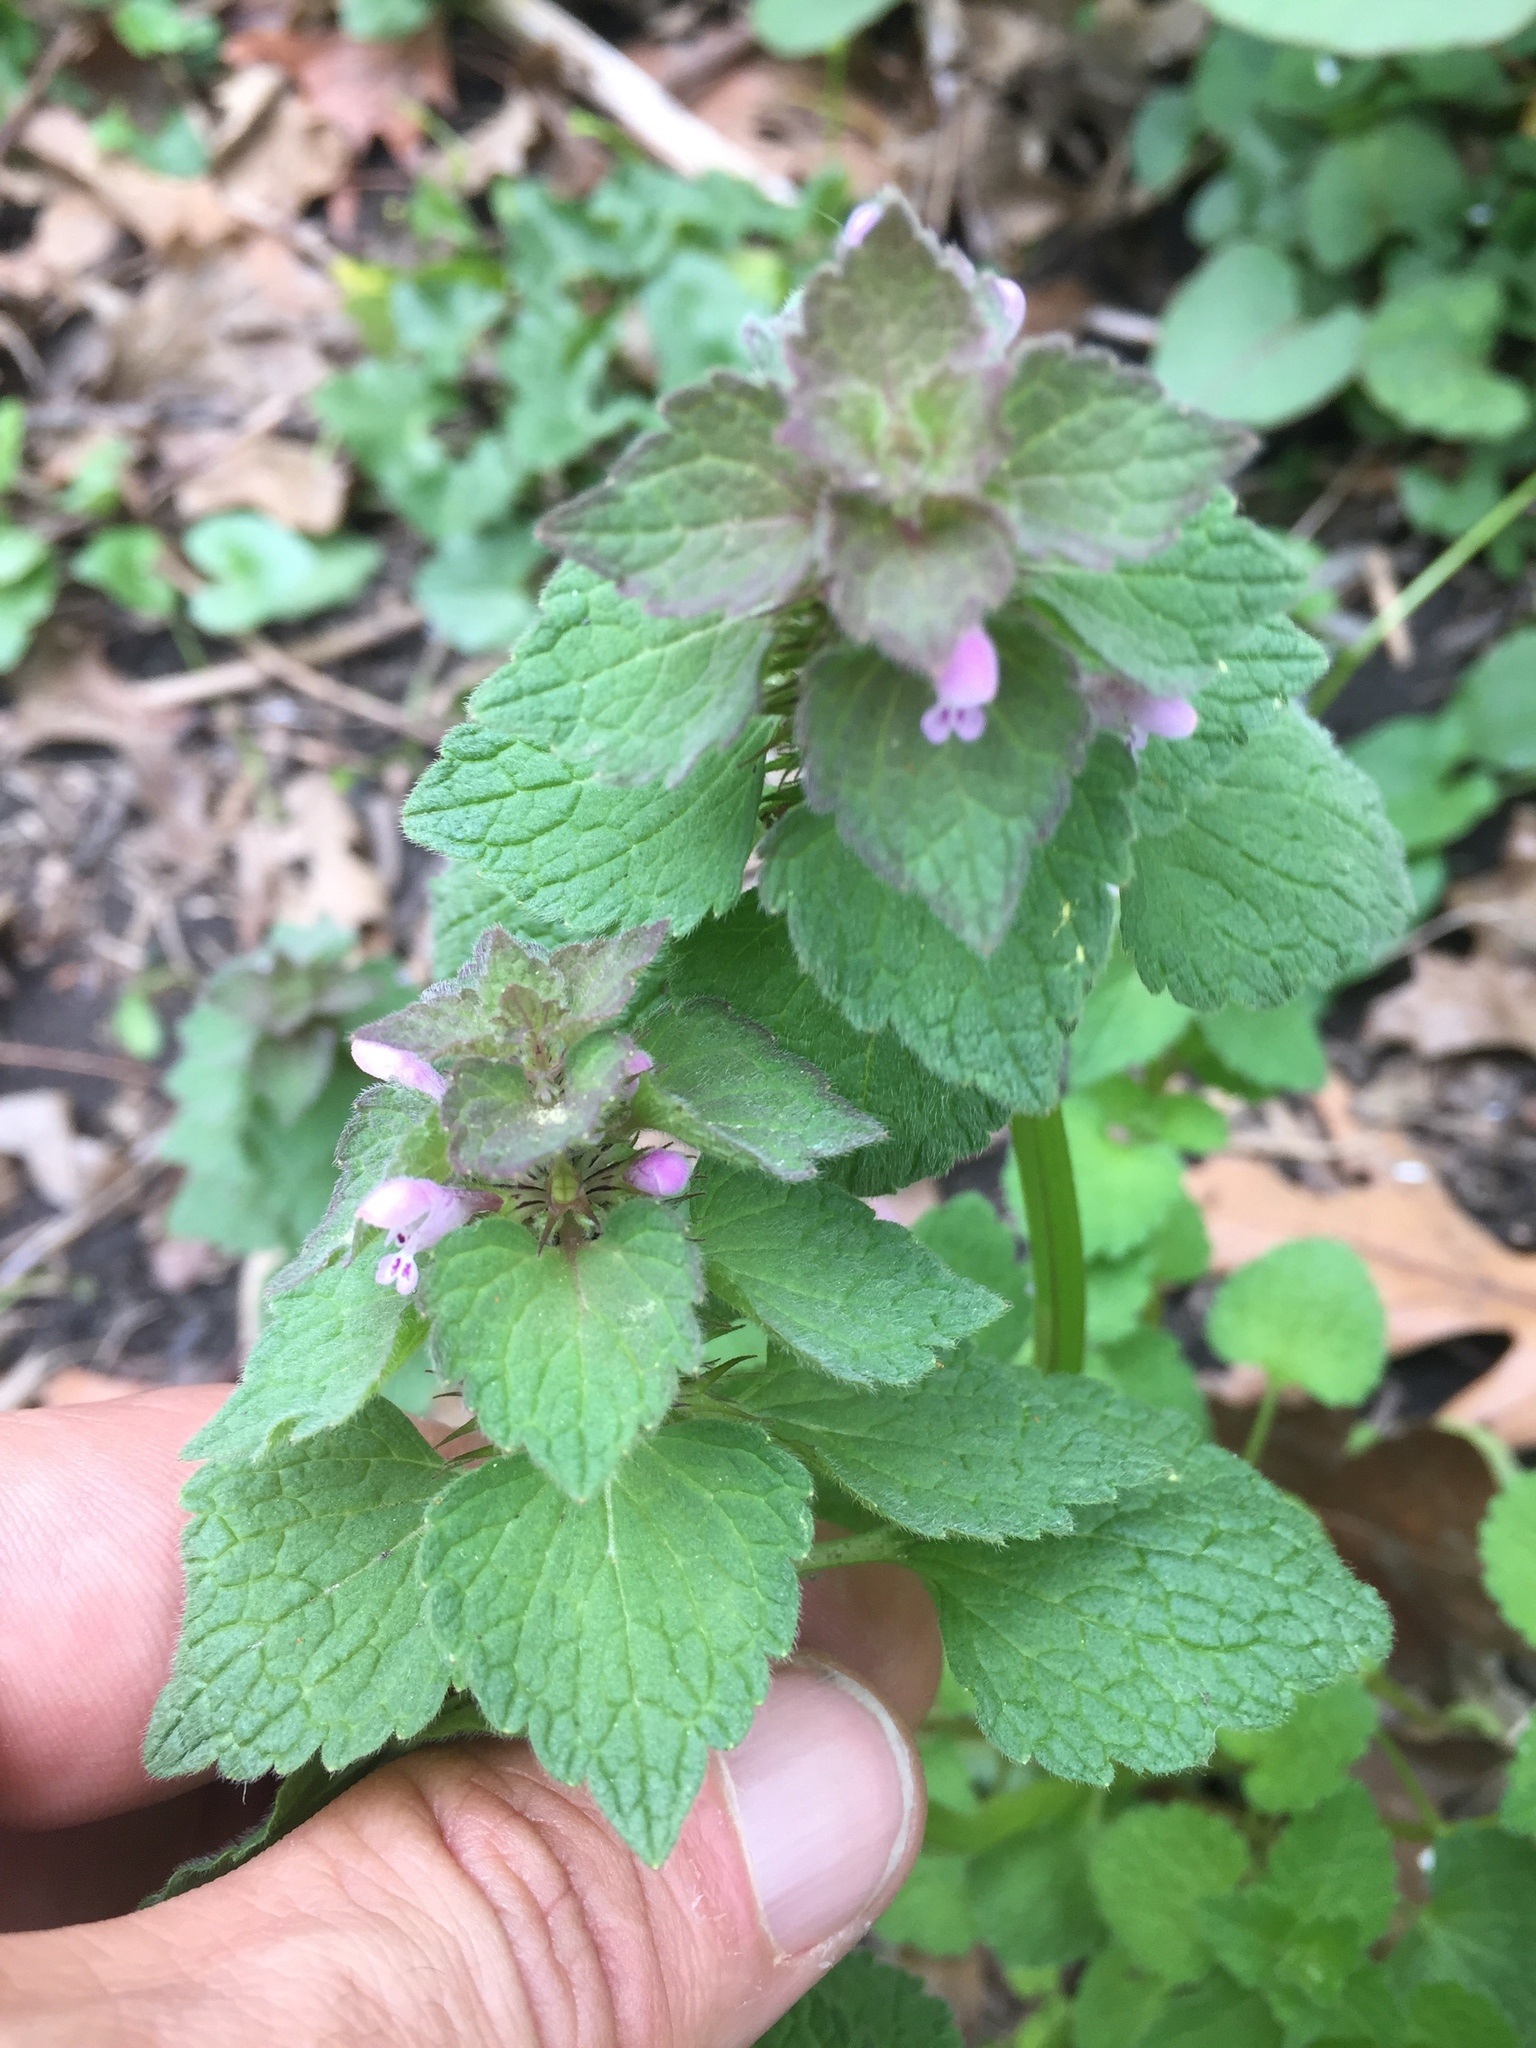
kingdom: Plantae
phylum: Tracheophyta
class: Magnoliopsida
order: Lamiales
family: Lamiaceae
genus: Lamium
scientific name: Lamium purpureum
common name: Red dead-nettle
